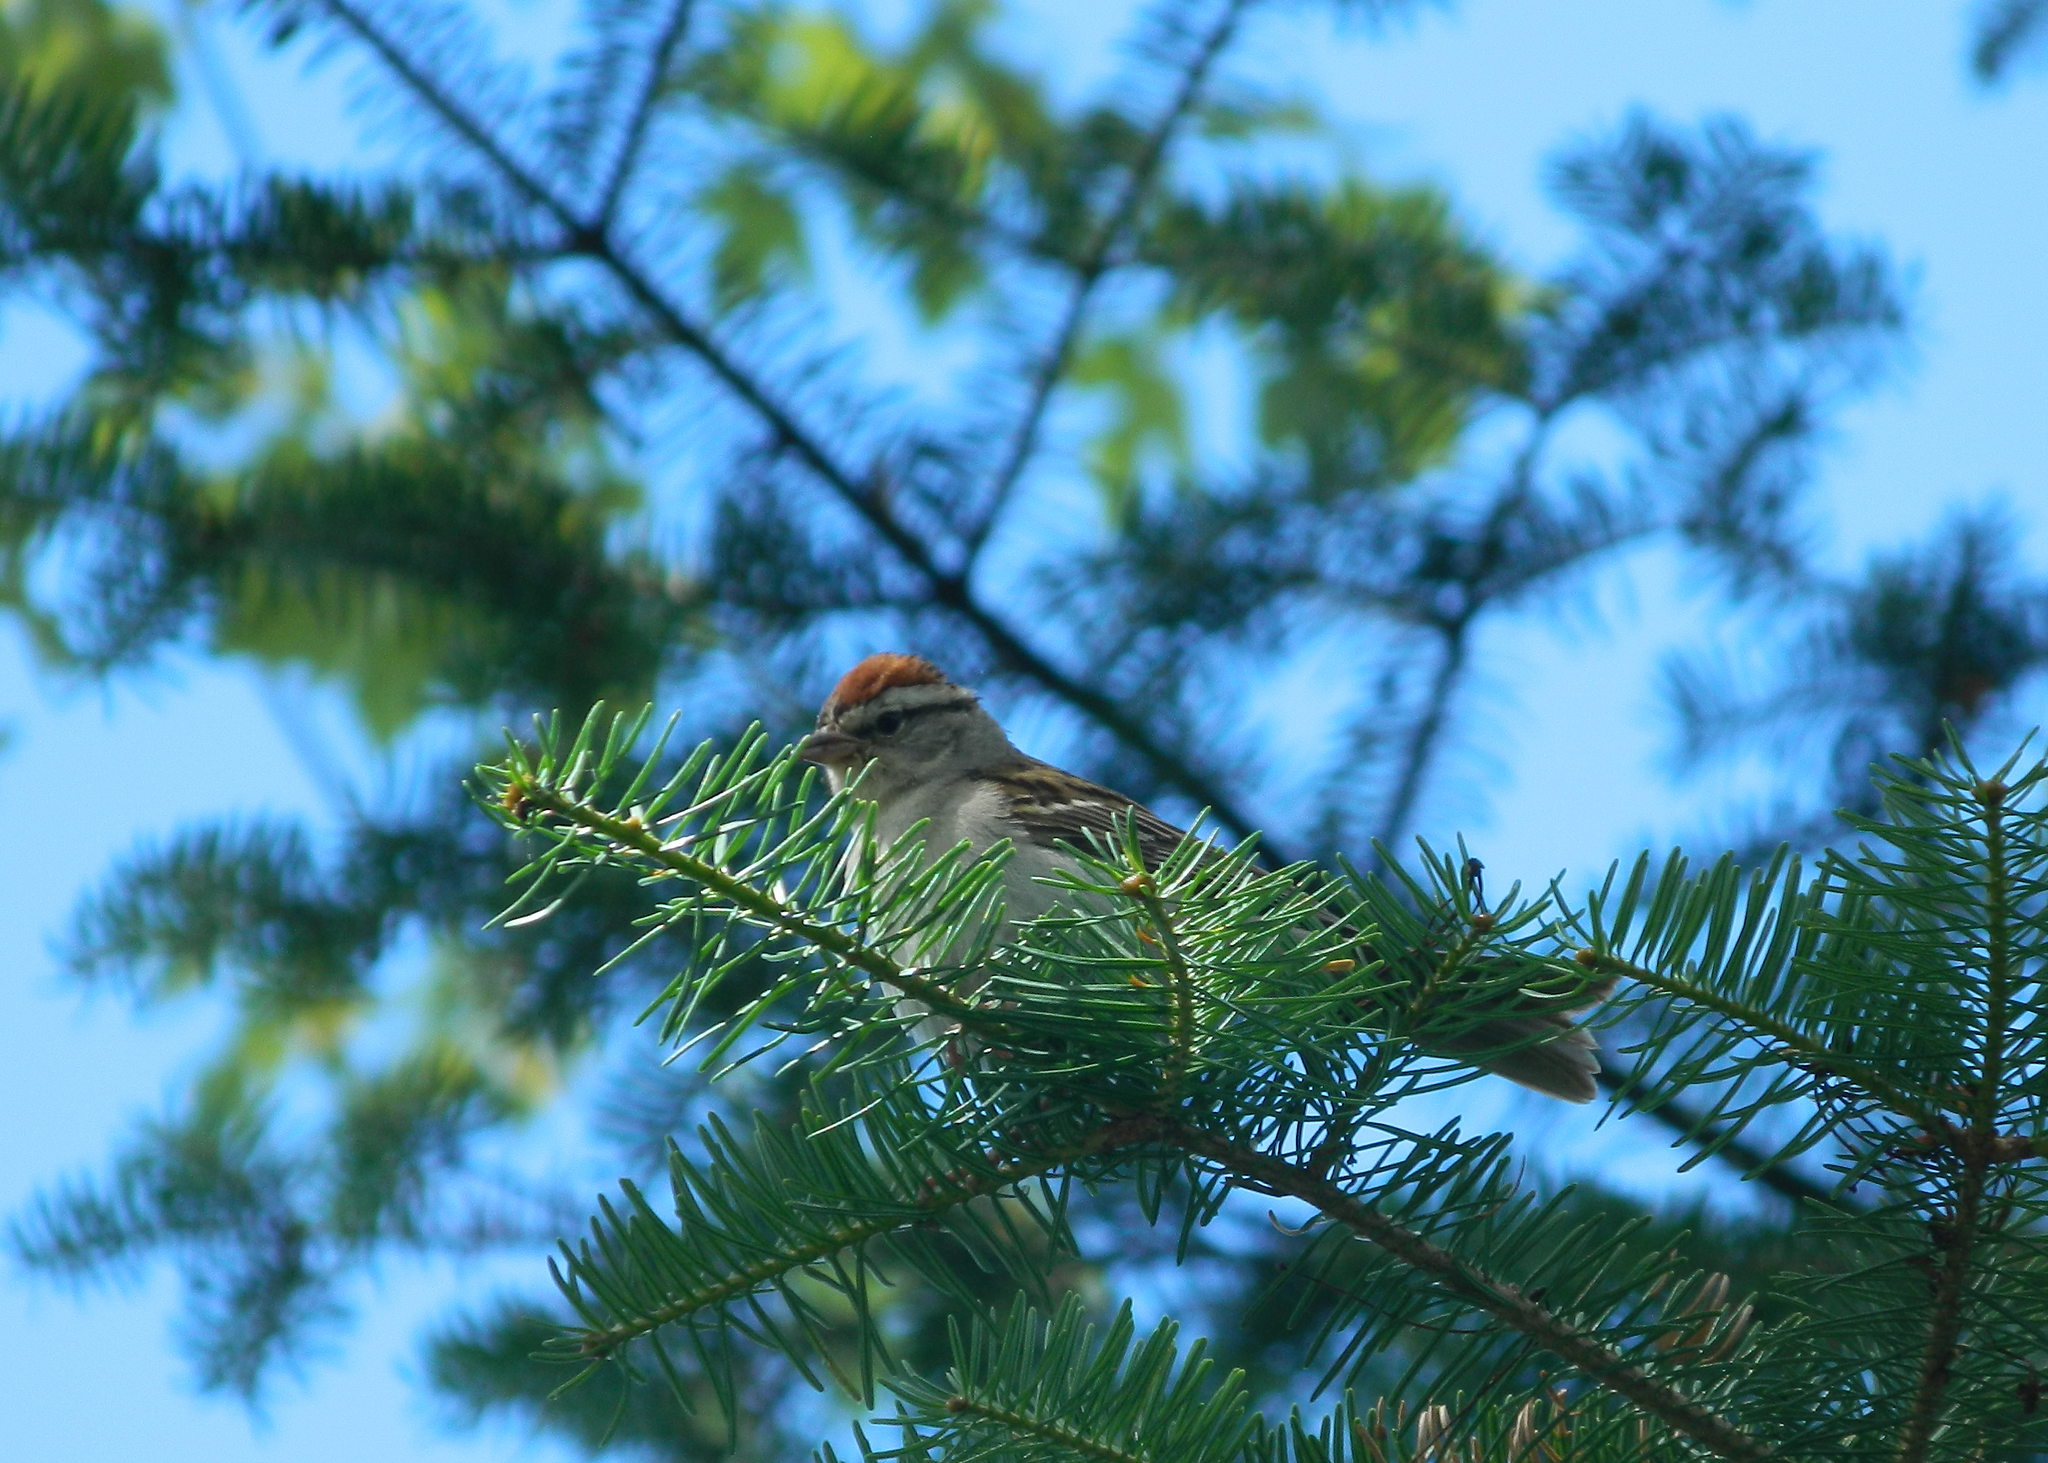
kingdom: Animalia
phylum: Chordata
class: Aves
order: Passeriformes
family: Passerellidae
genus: Spizella
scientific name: Spizella passerina
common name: Chipping sparrow
